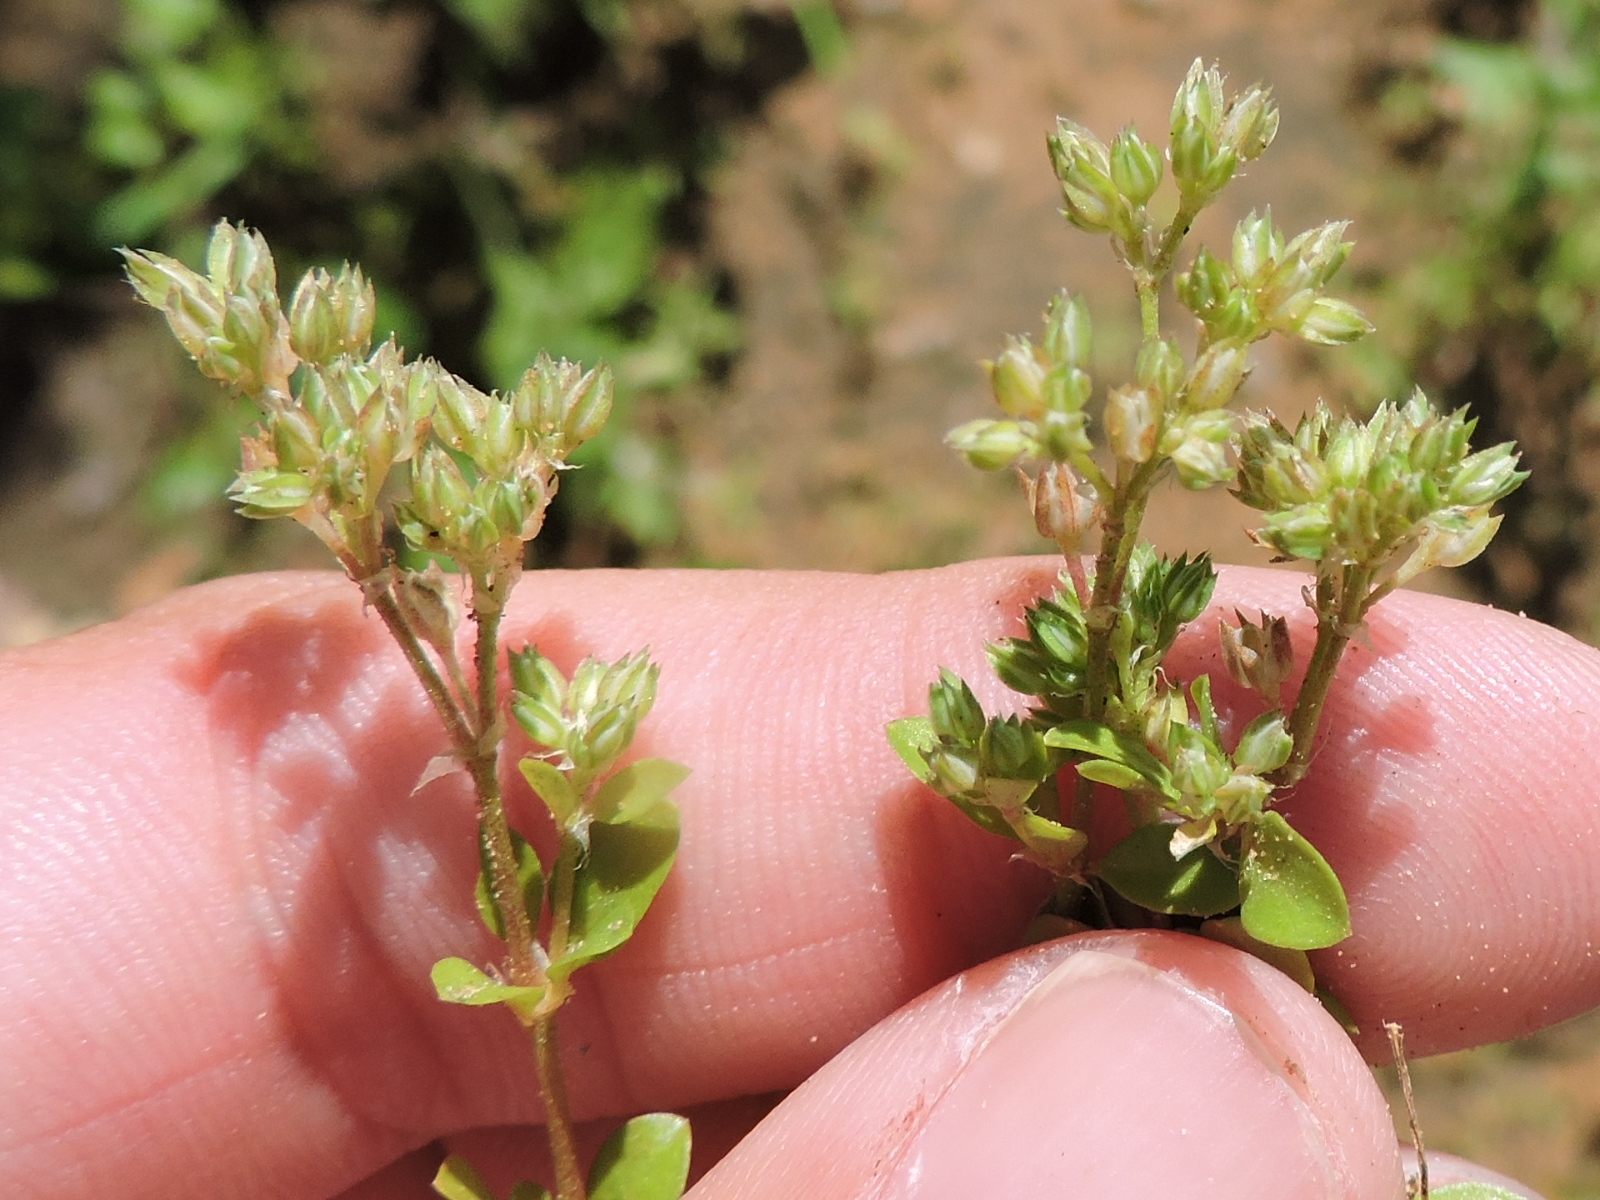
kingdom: Plantae
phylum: Tracheophyta
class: Magnoliopsida
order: Caryophyllales
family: Caryophyllaceae
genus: Polycarpon
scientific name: Polycarpon tetraphyllum
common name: Four-leaved all-seed
